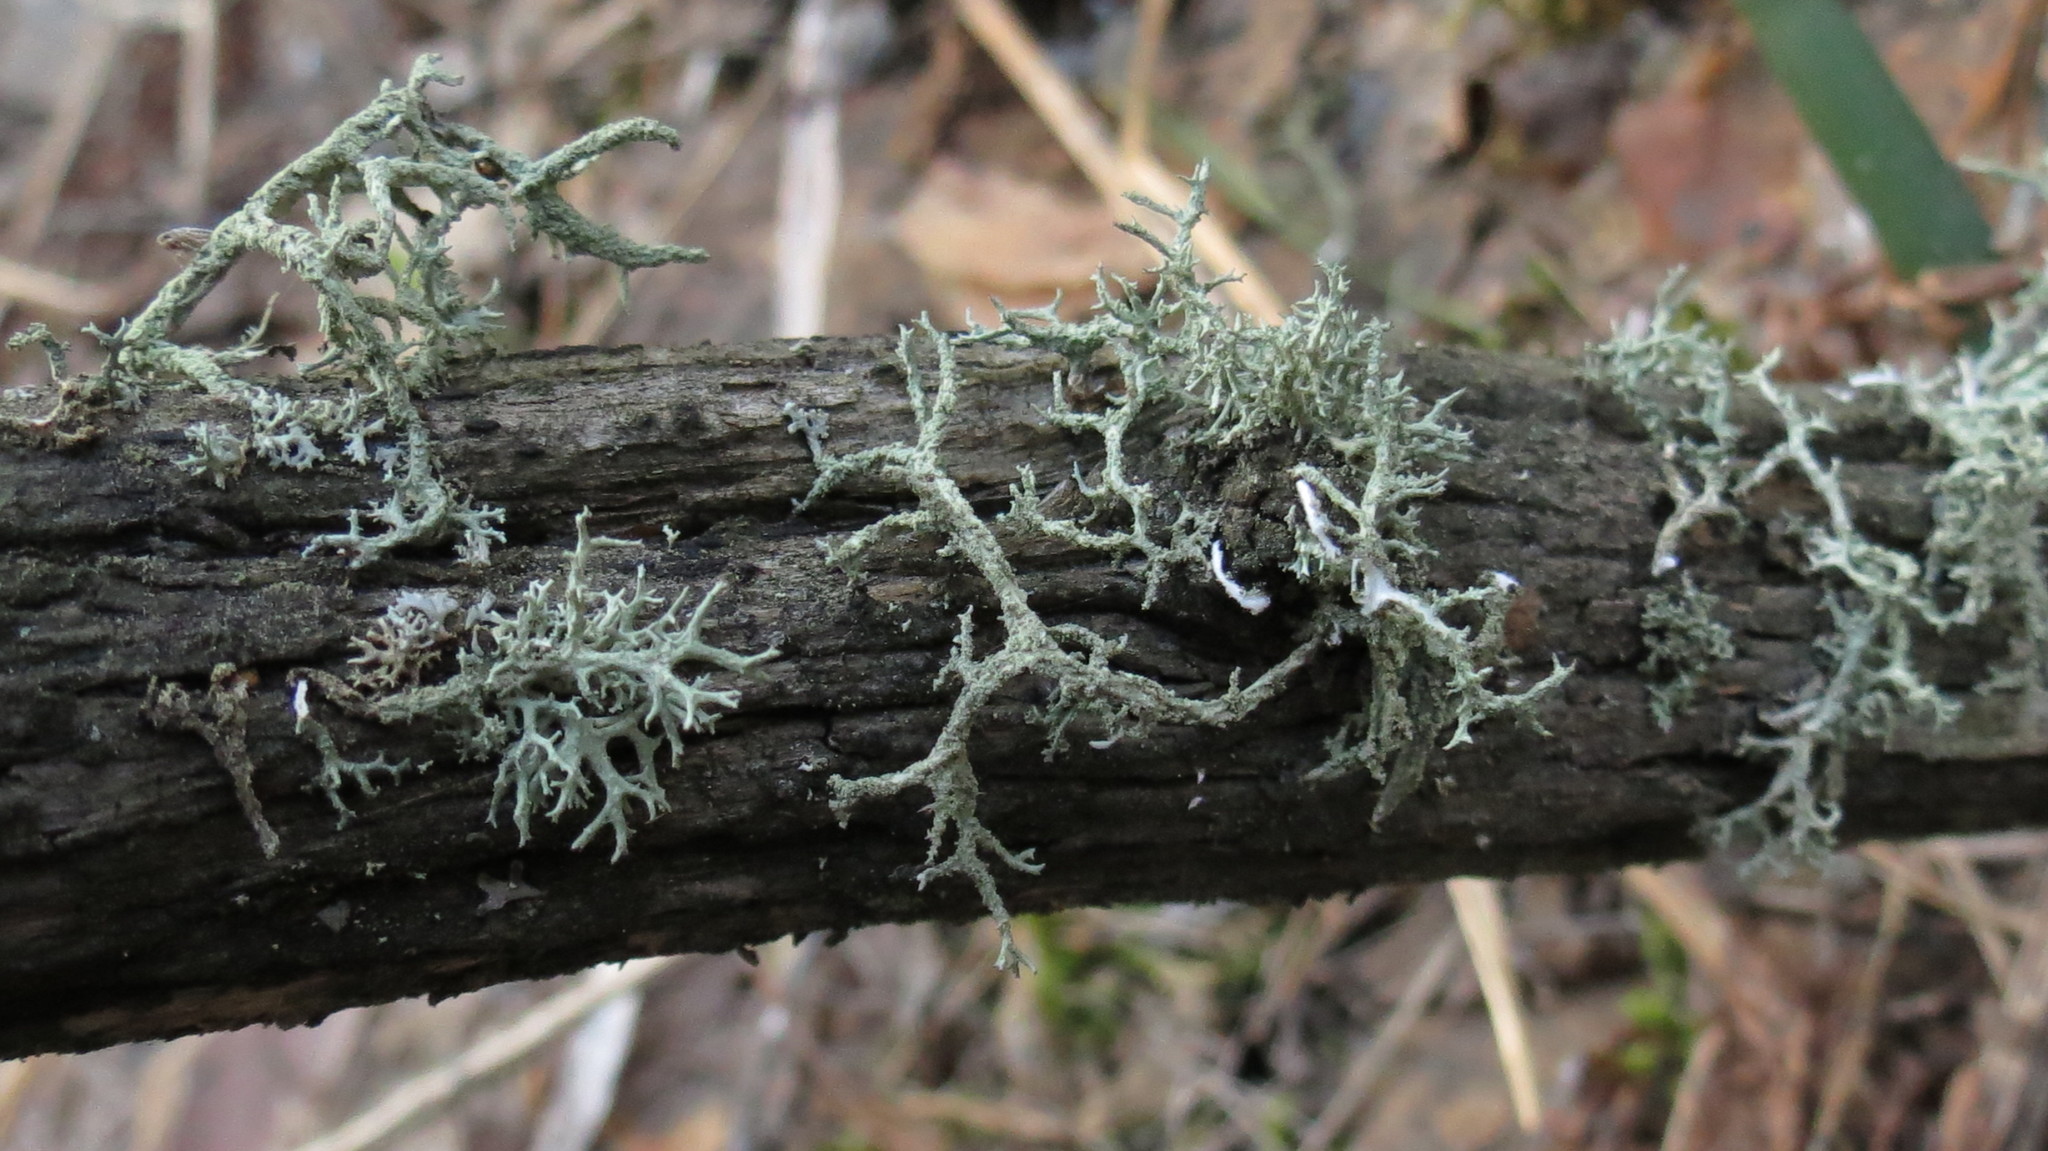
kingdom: Fungi
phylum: Ascomycota
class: Lecanoromycetes
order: Lecanorales
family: Parmeliaceae
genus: Evernia
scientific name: Evernia mesomorpha
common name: Boreal oak moss lichen
